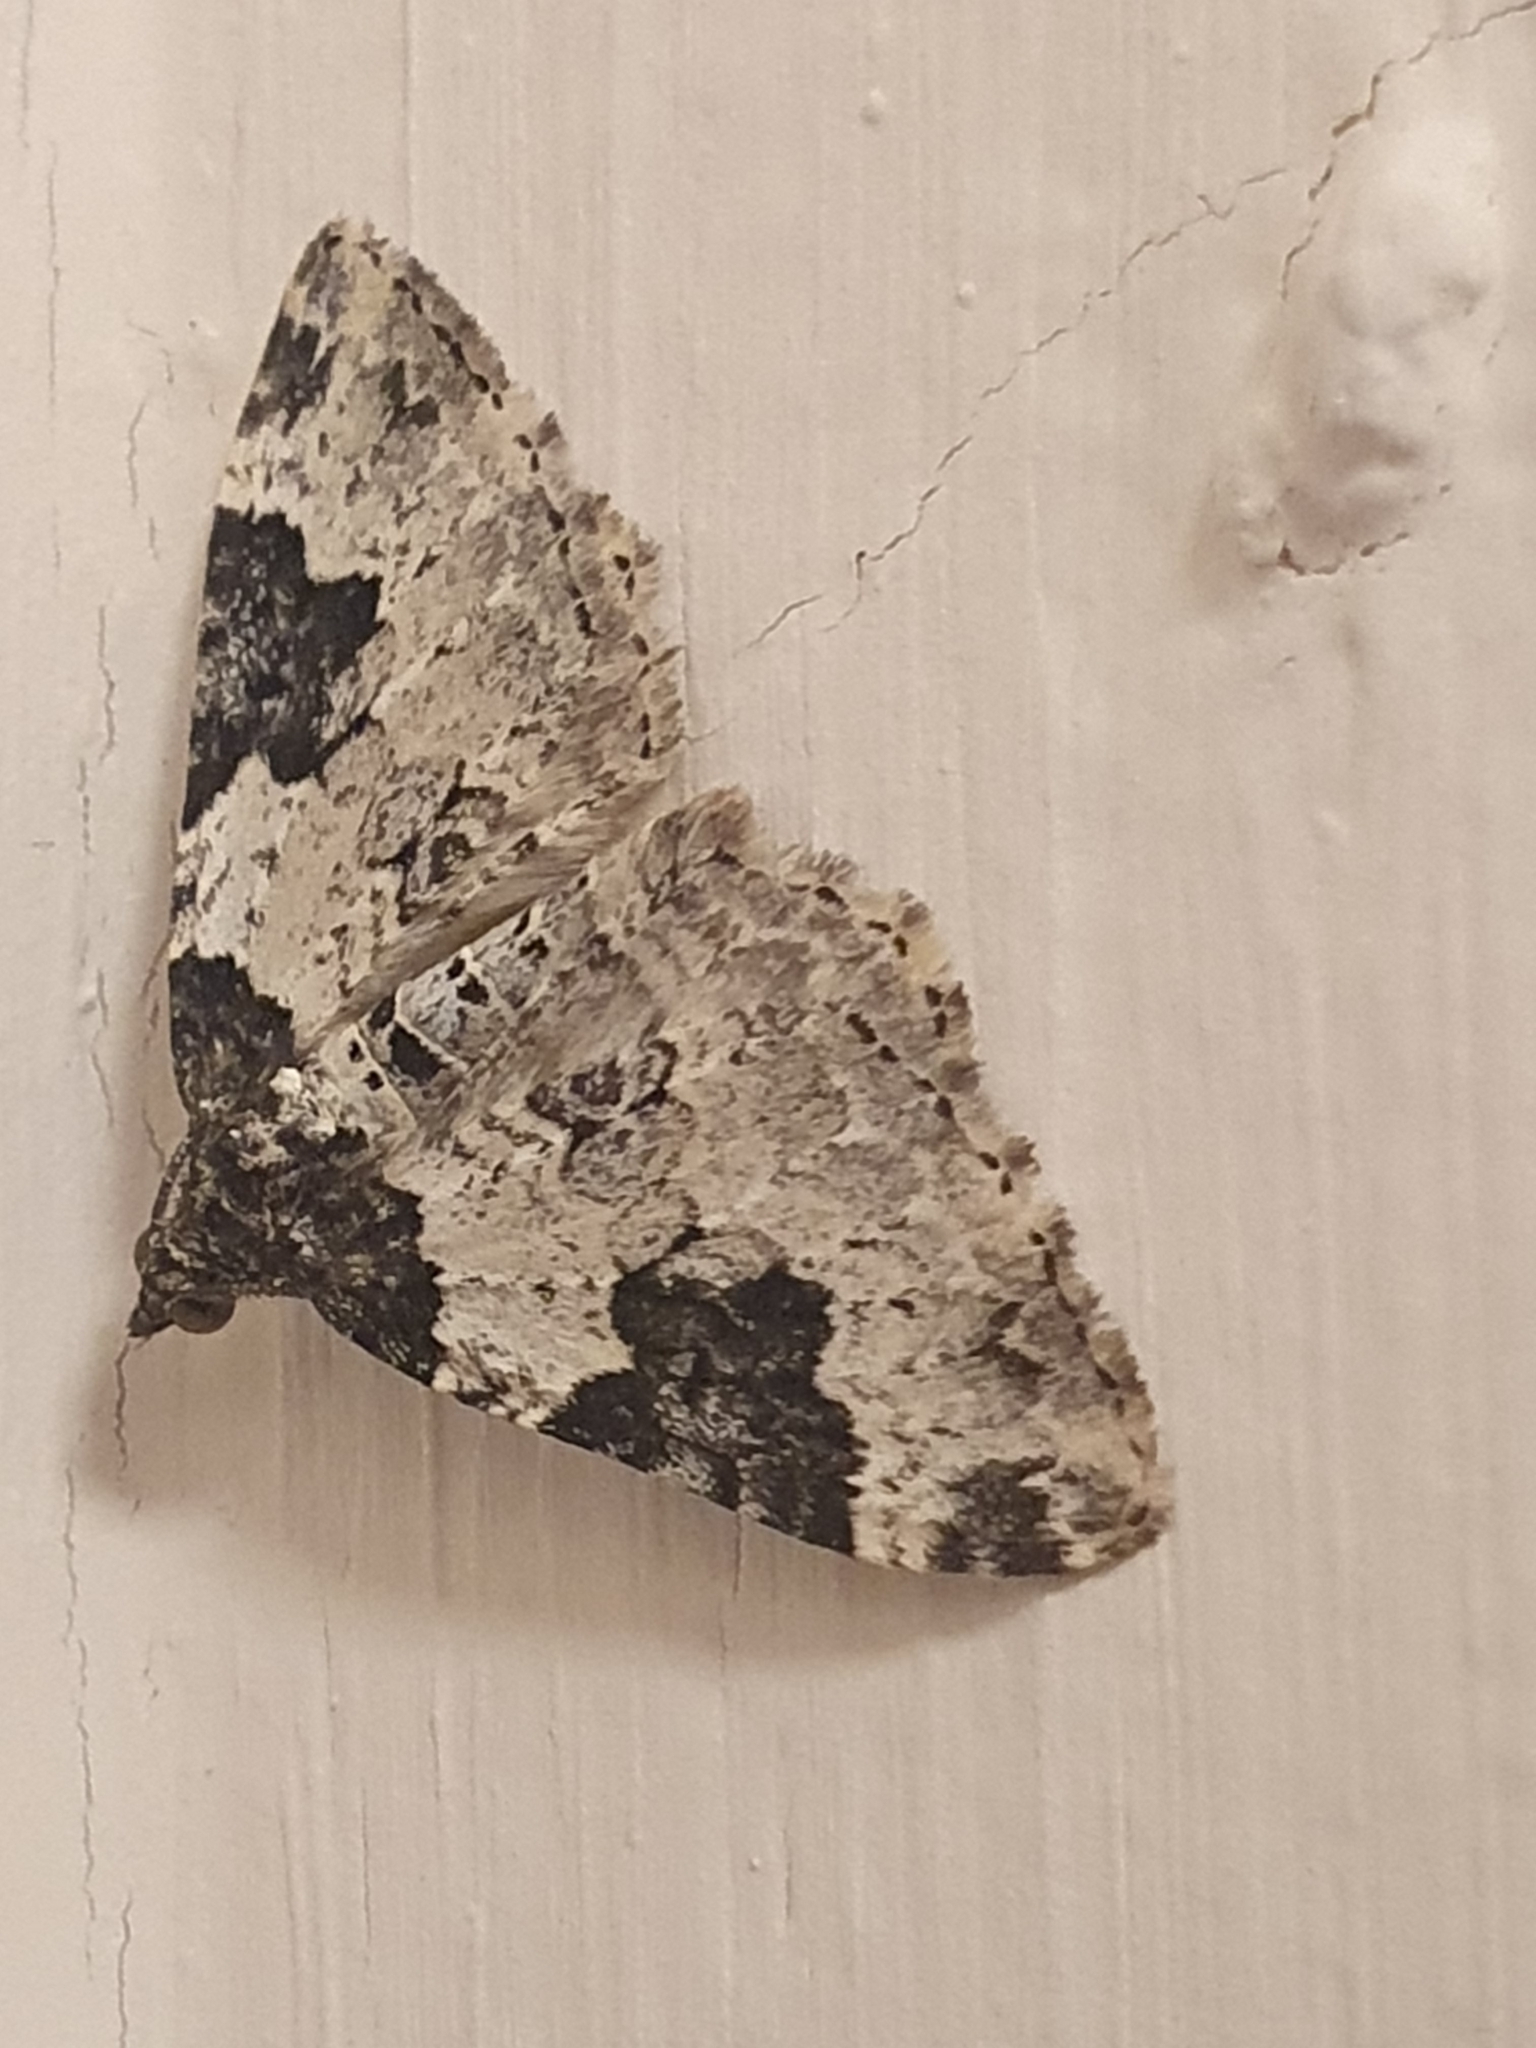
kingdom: Animalia
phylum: Arthropoda
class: Insecta
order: Lepidoptera
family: Geometridae
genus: Xanthorhoe
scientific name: Xanthorhoe fluctuata
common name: Garden carpet
